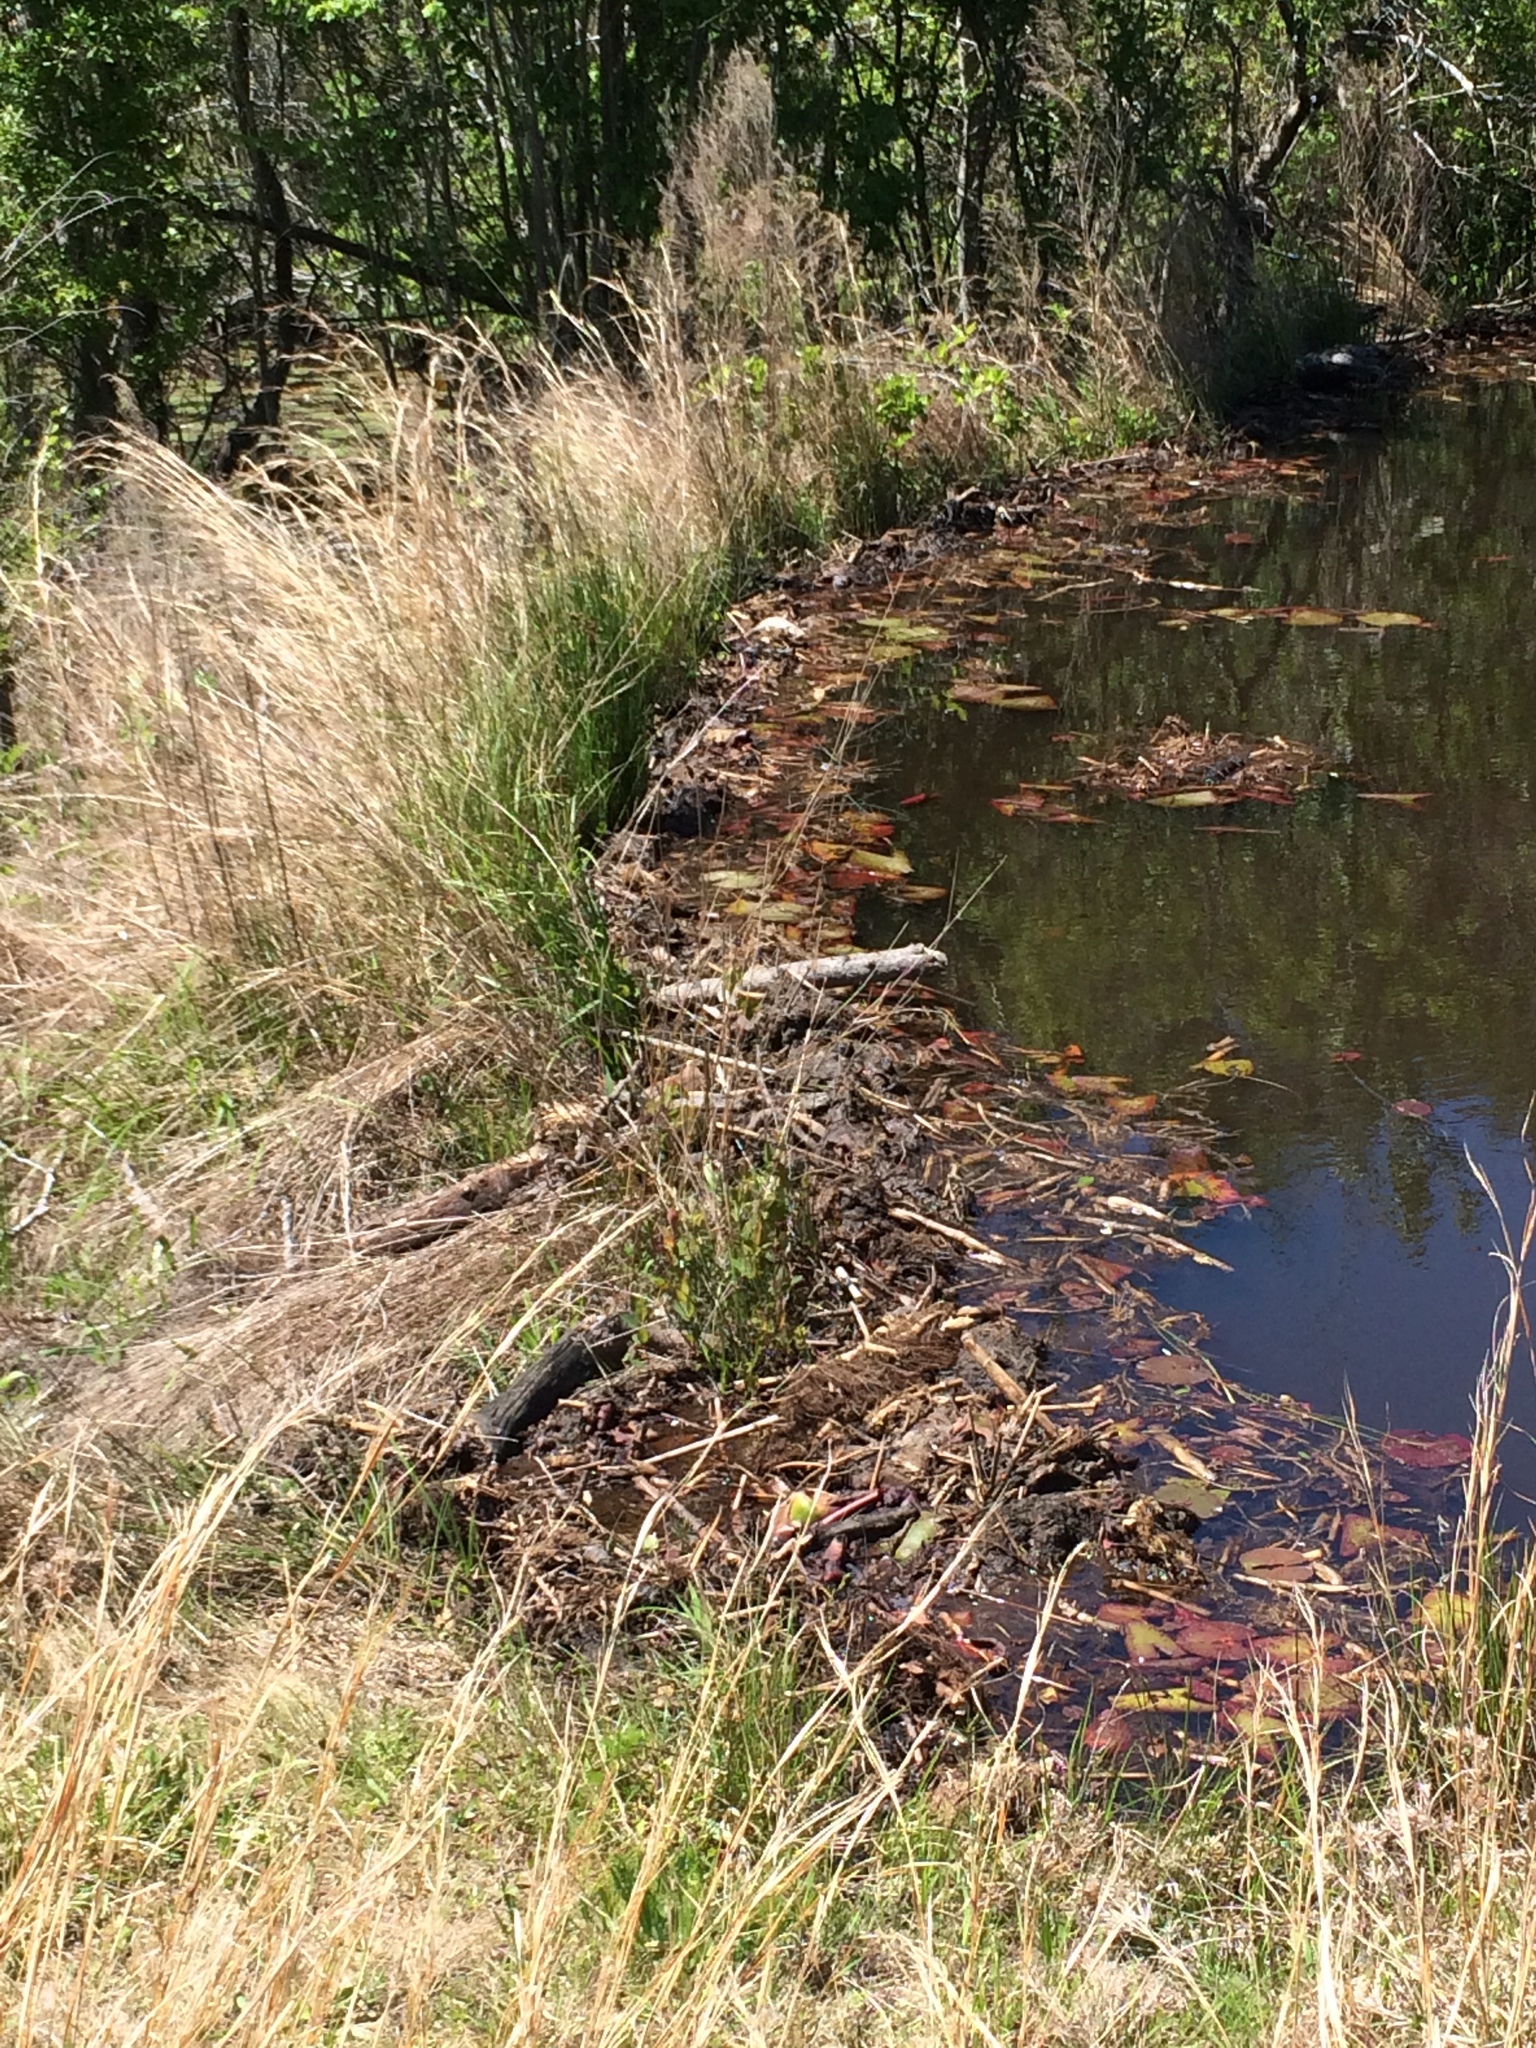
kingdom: Animalia
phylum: Chordata
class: Mammalia
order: Rodentia
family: Castoridae
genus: Castor
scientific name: Castor canadensis
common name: American beaver
